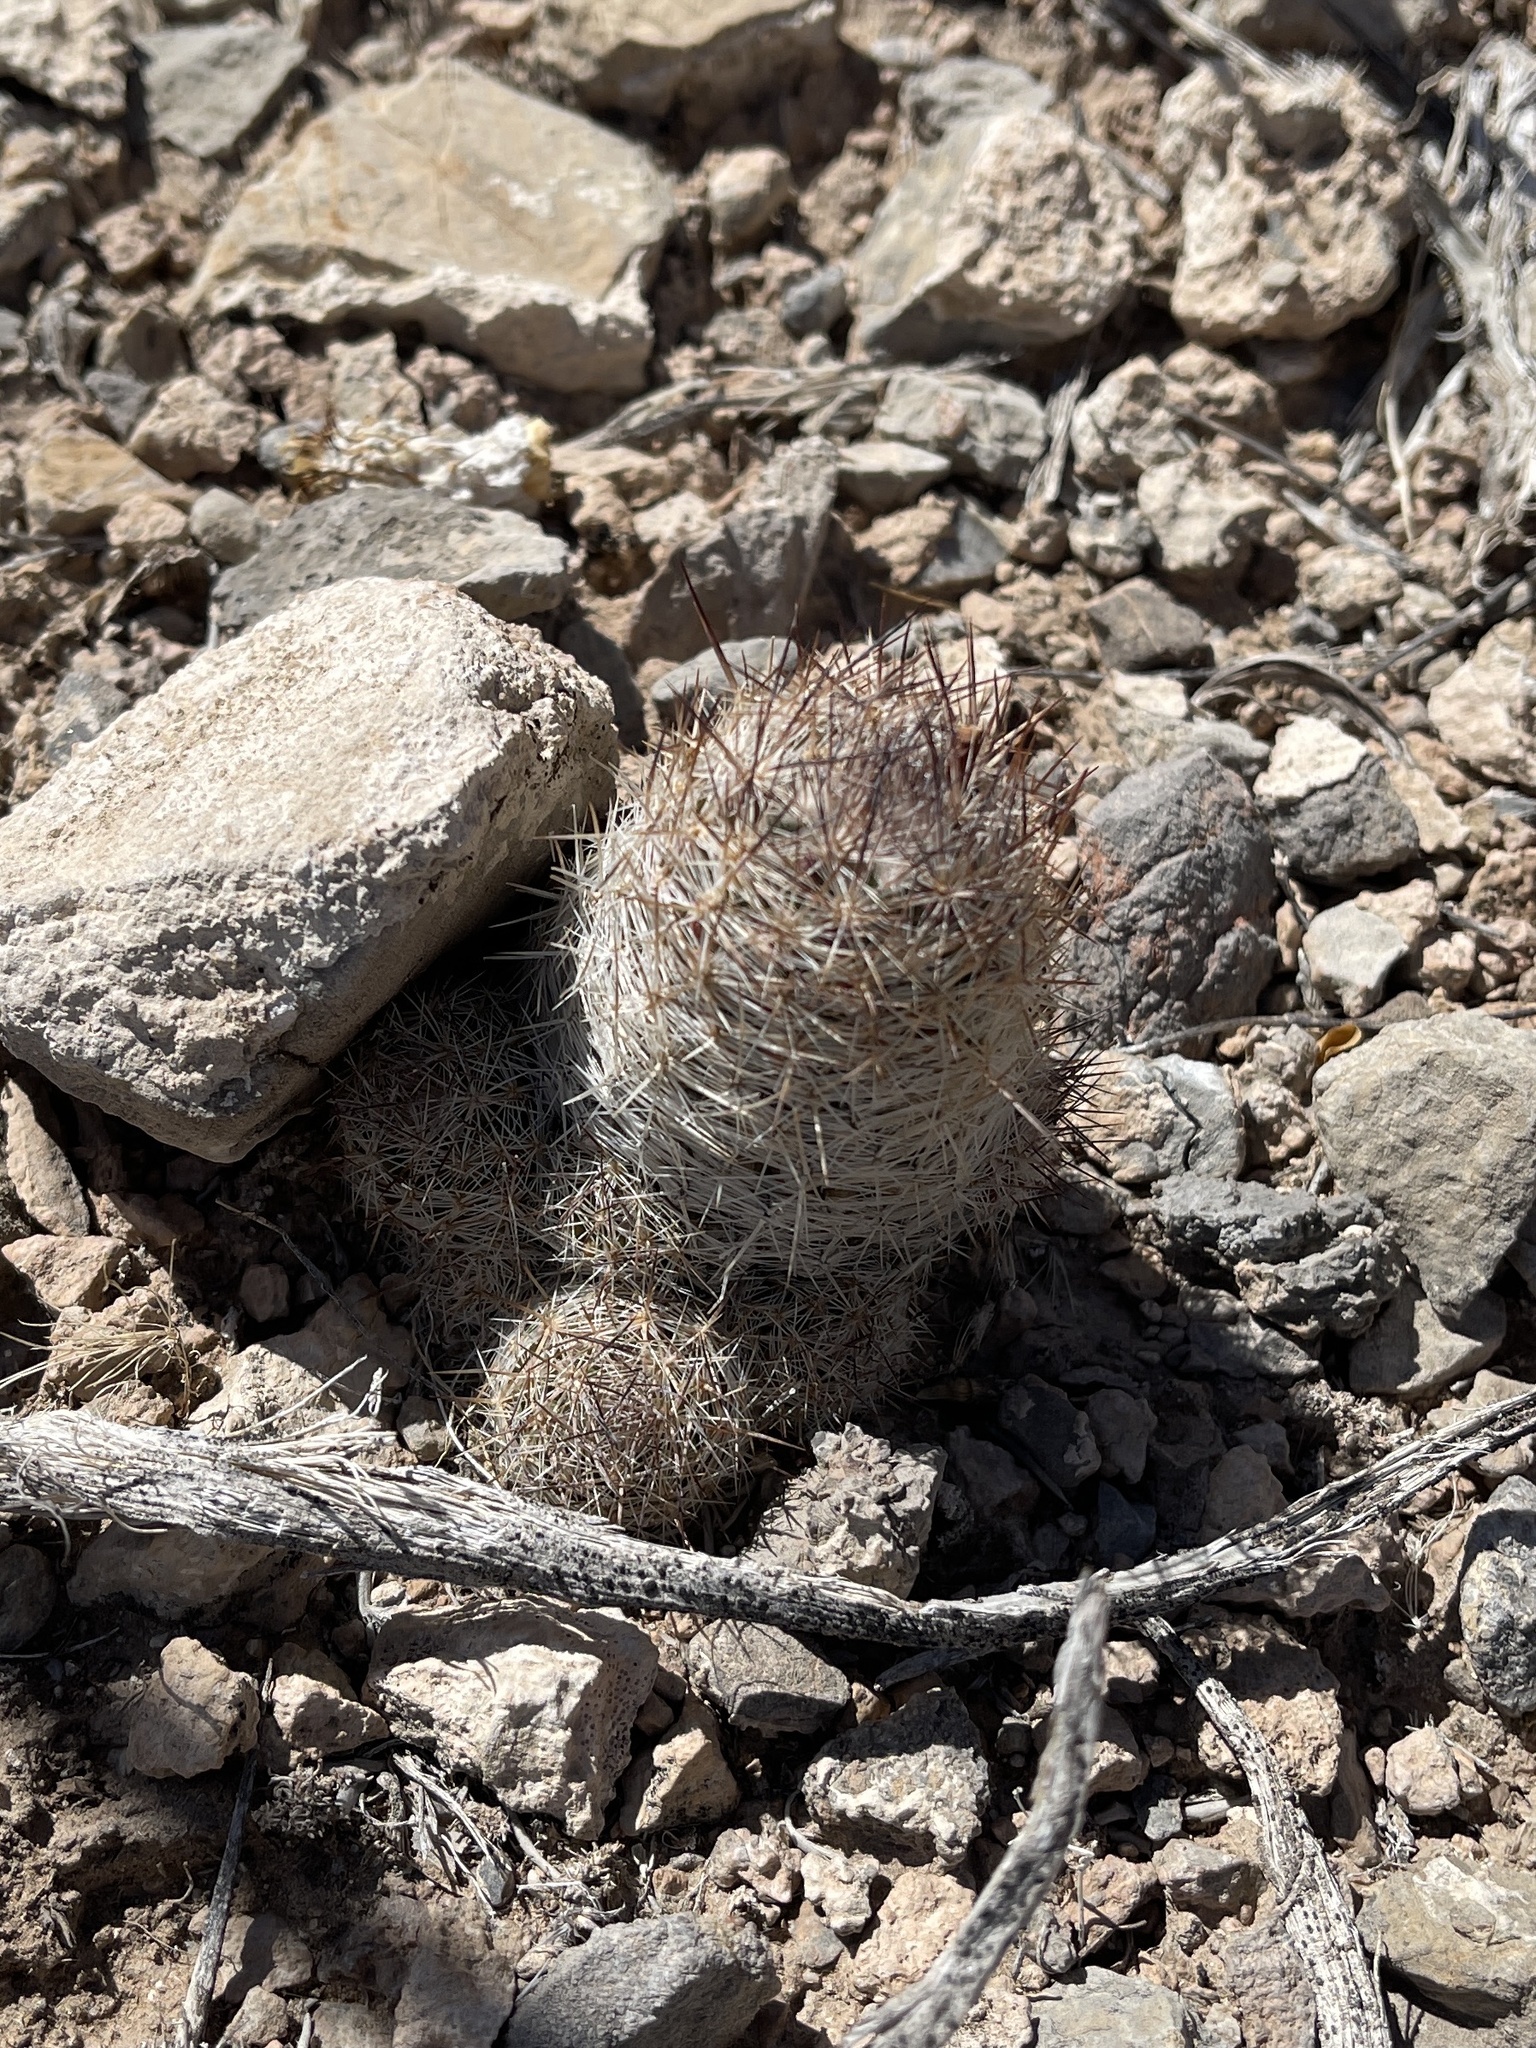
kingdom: Plantae
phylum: Tracheophyta
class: Magnoliopsida
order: Caryophyllales
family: Cactaceae
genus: Pelecyphora
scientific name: Pelecyphora tuberculosa
